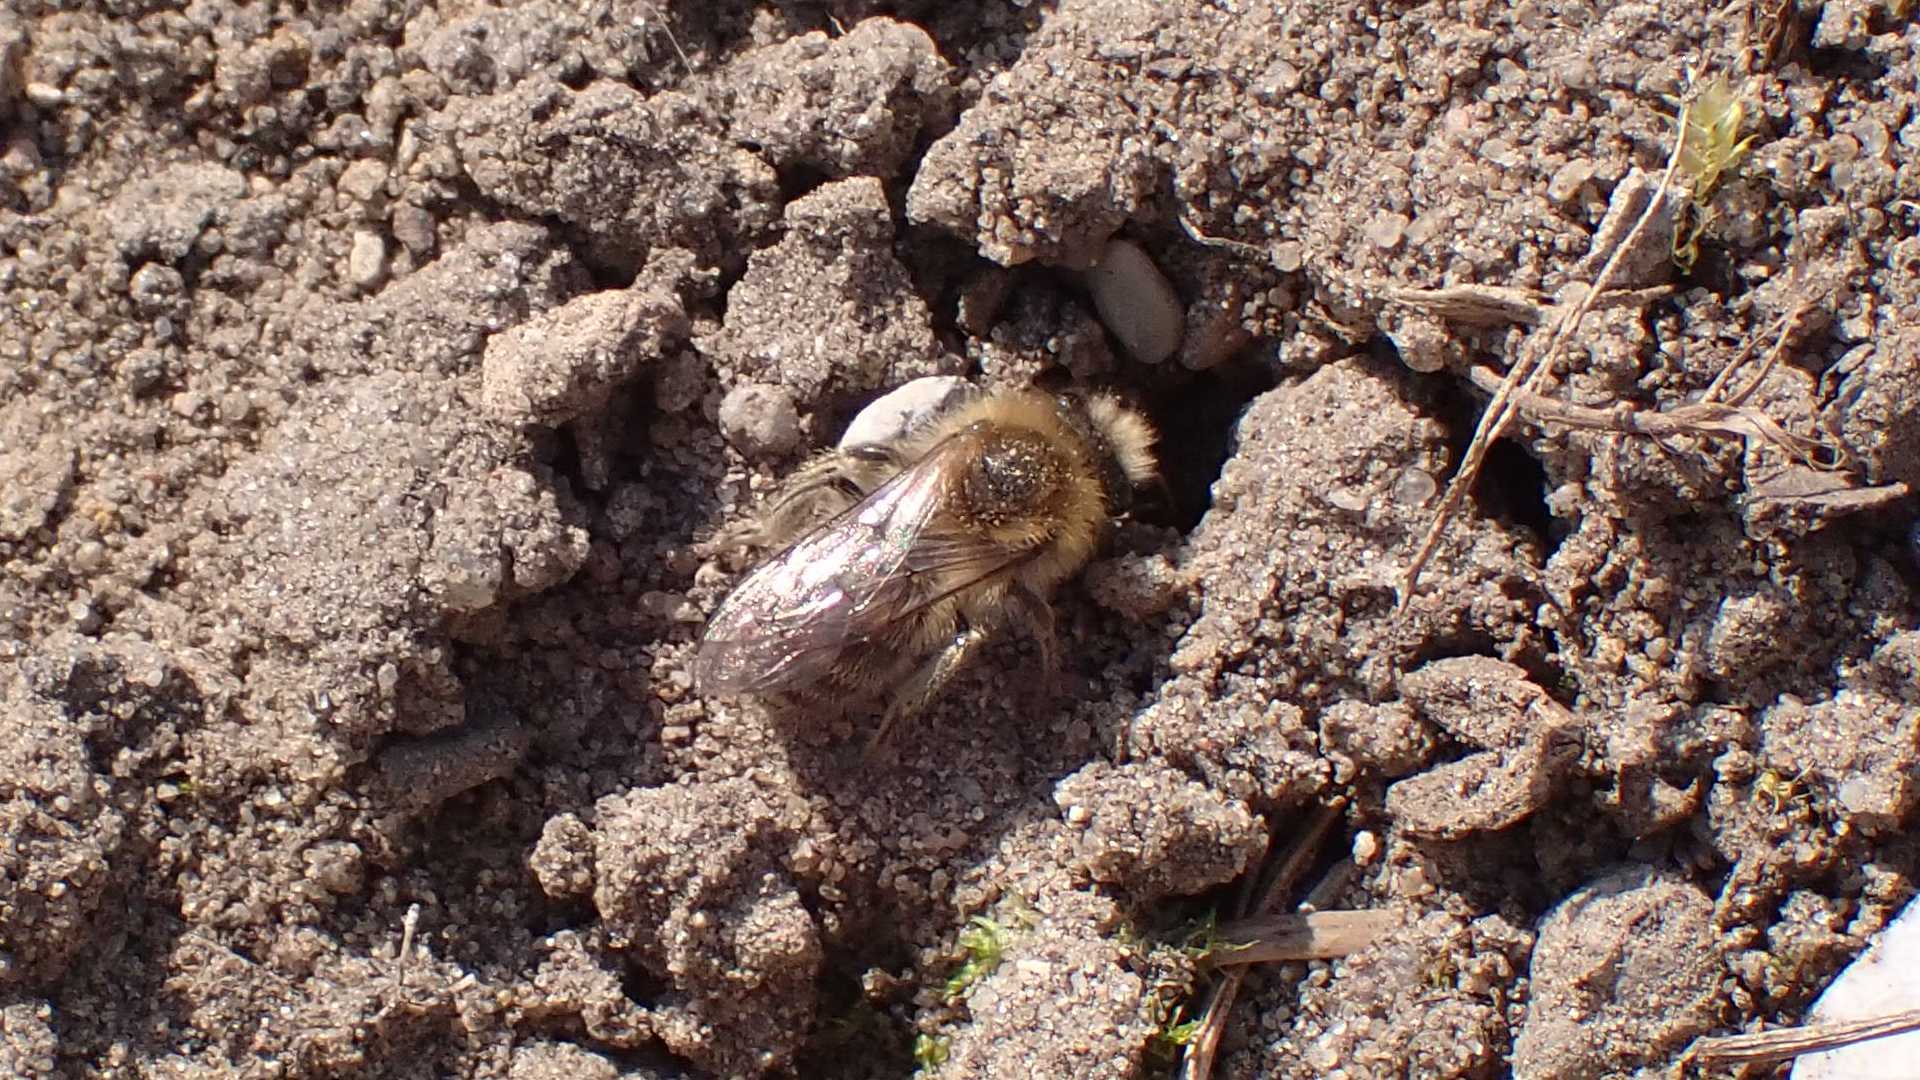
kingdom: Animalia
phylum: Arthropoda
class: Insecta
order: Hymenoptera
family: Colletidae
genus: Colletes
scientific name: Colletes cunicularius
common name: Early colletes
